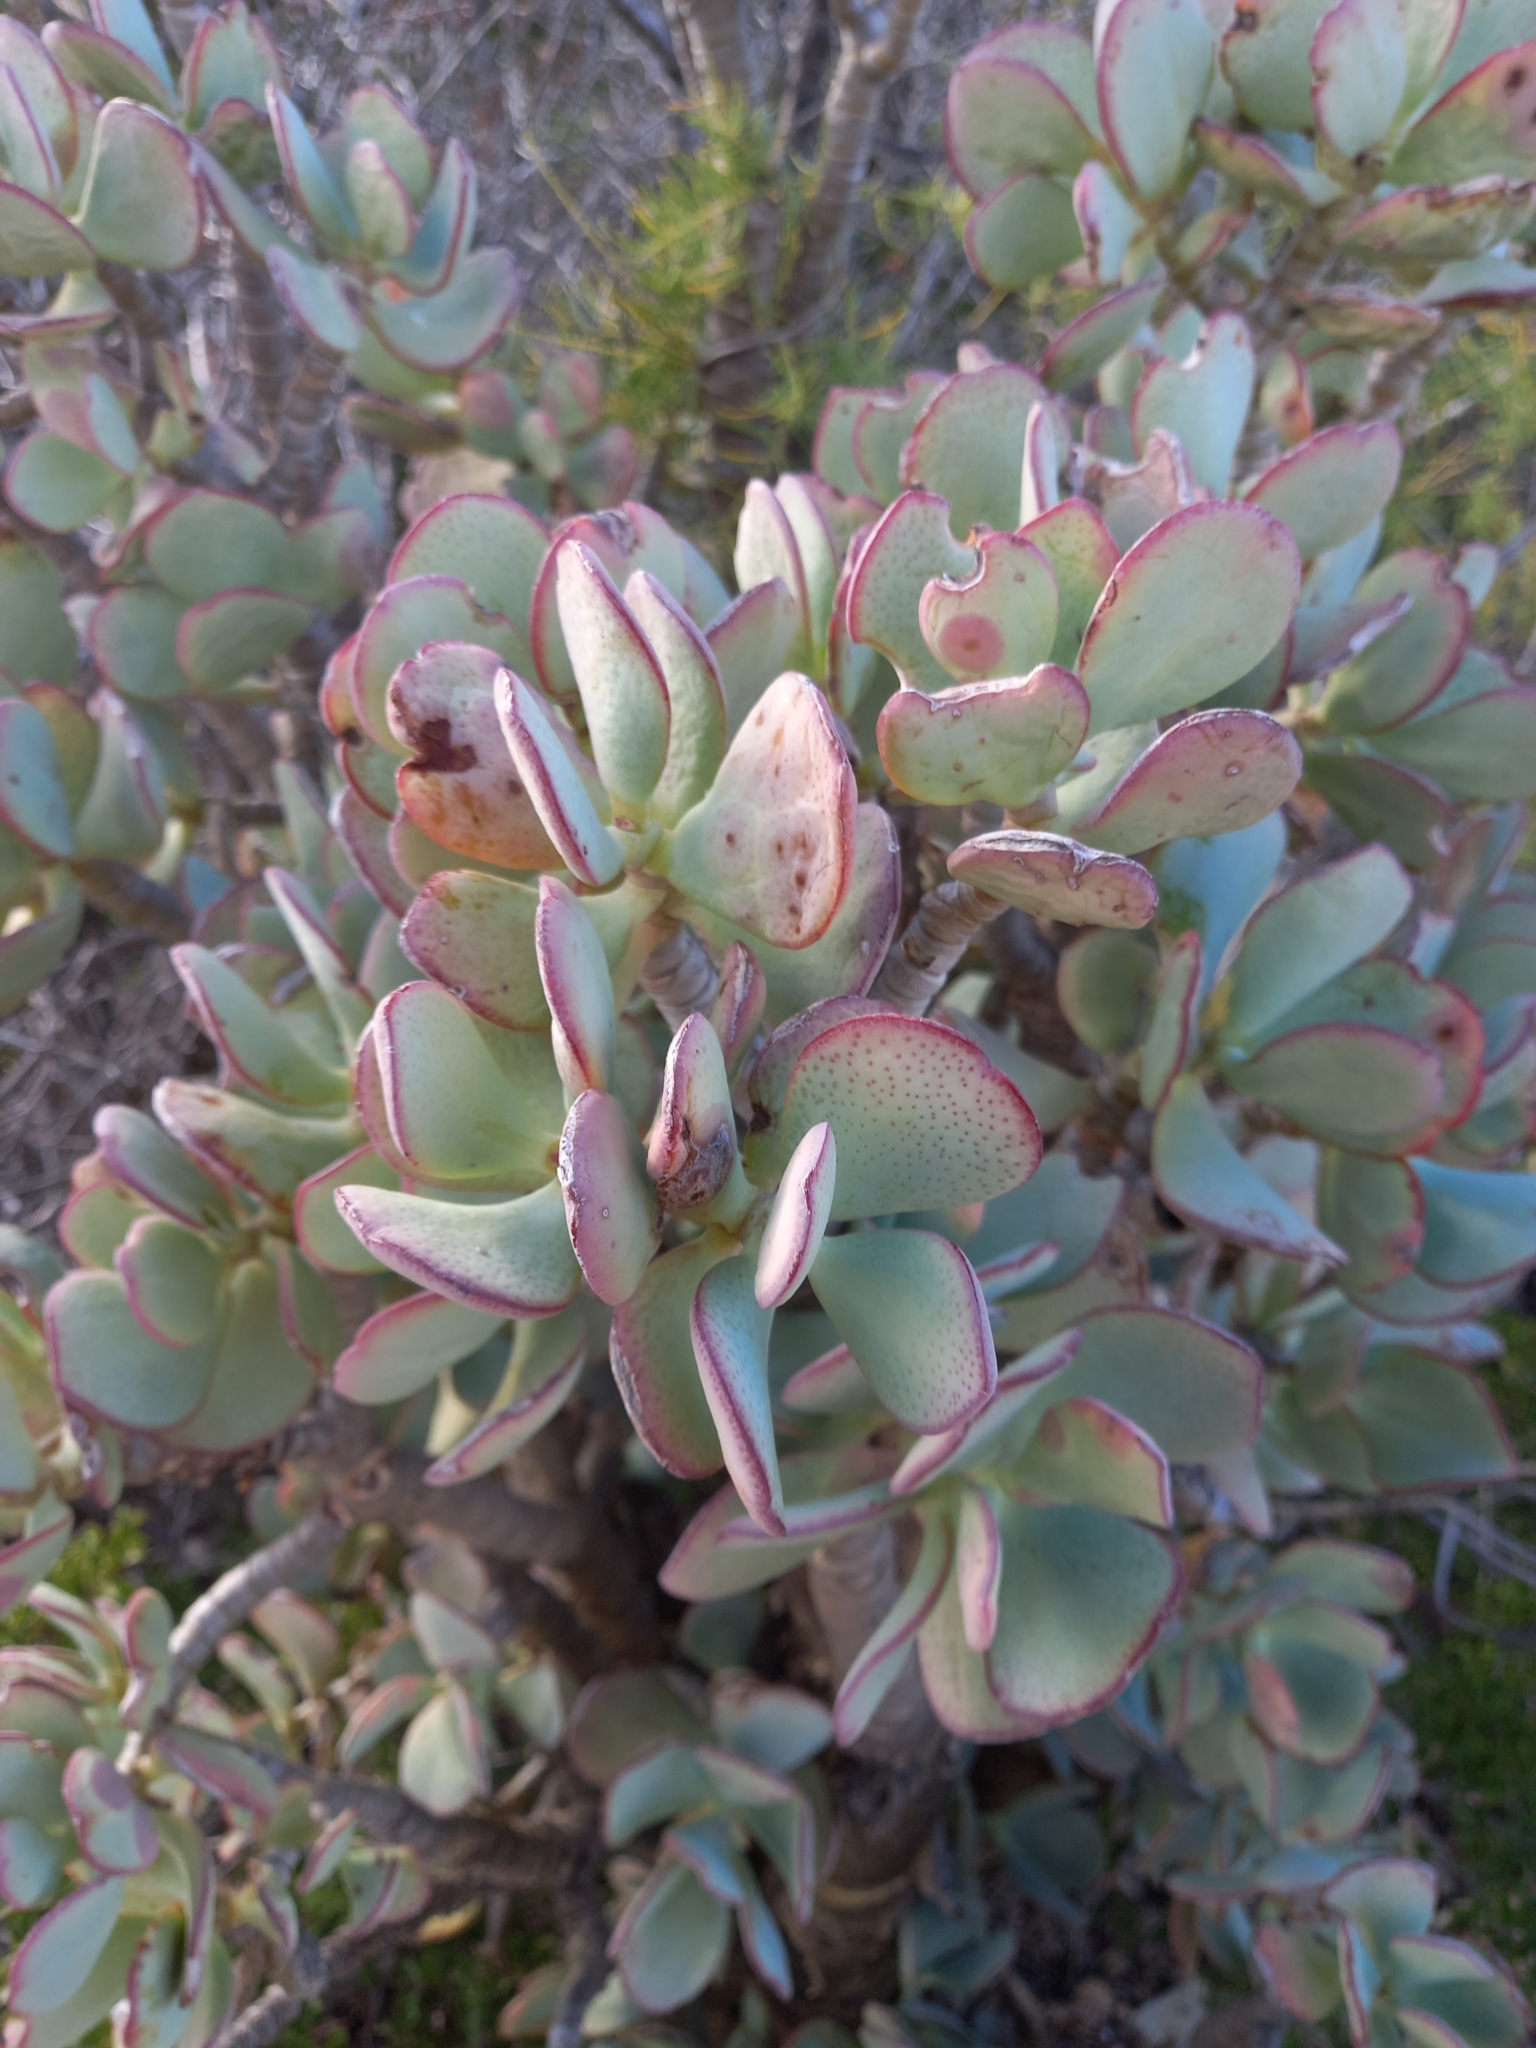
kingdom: Plantae
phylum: Tracheophyta
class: Magnoliopsida
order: Saxifragales
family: Crassulaceae
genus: Crassula
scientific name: Crassula arborescens
